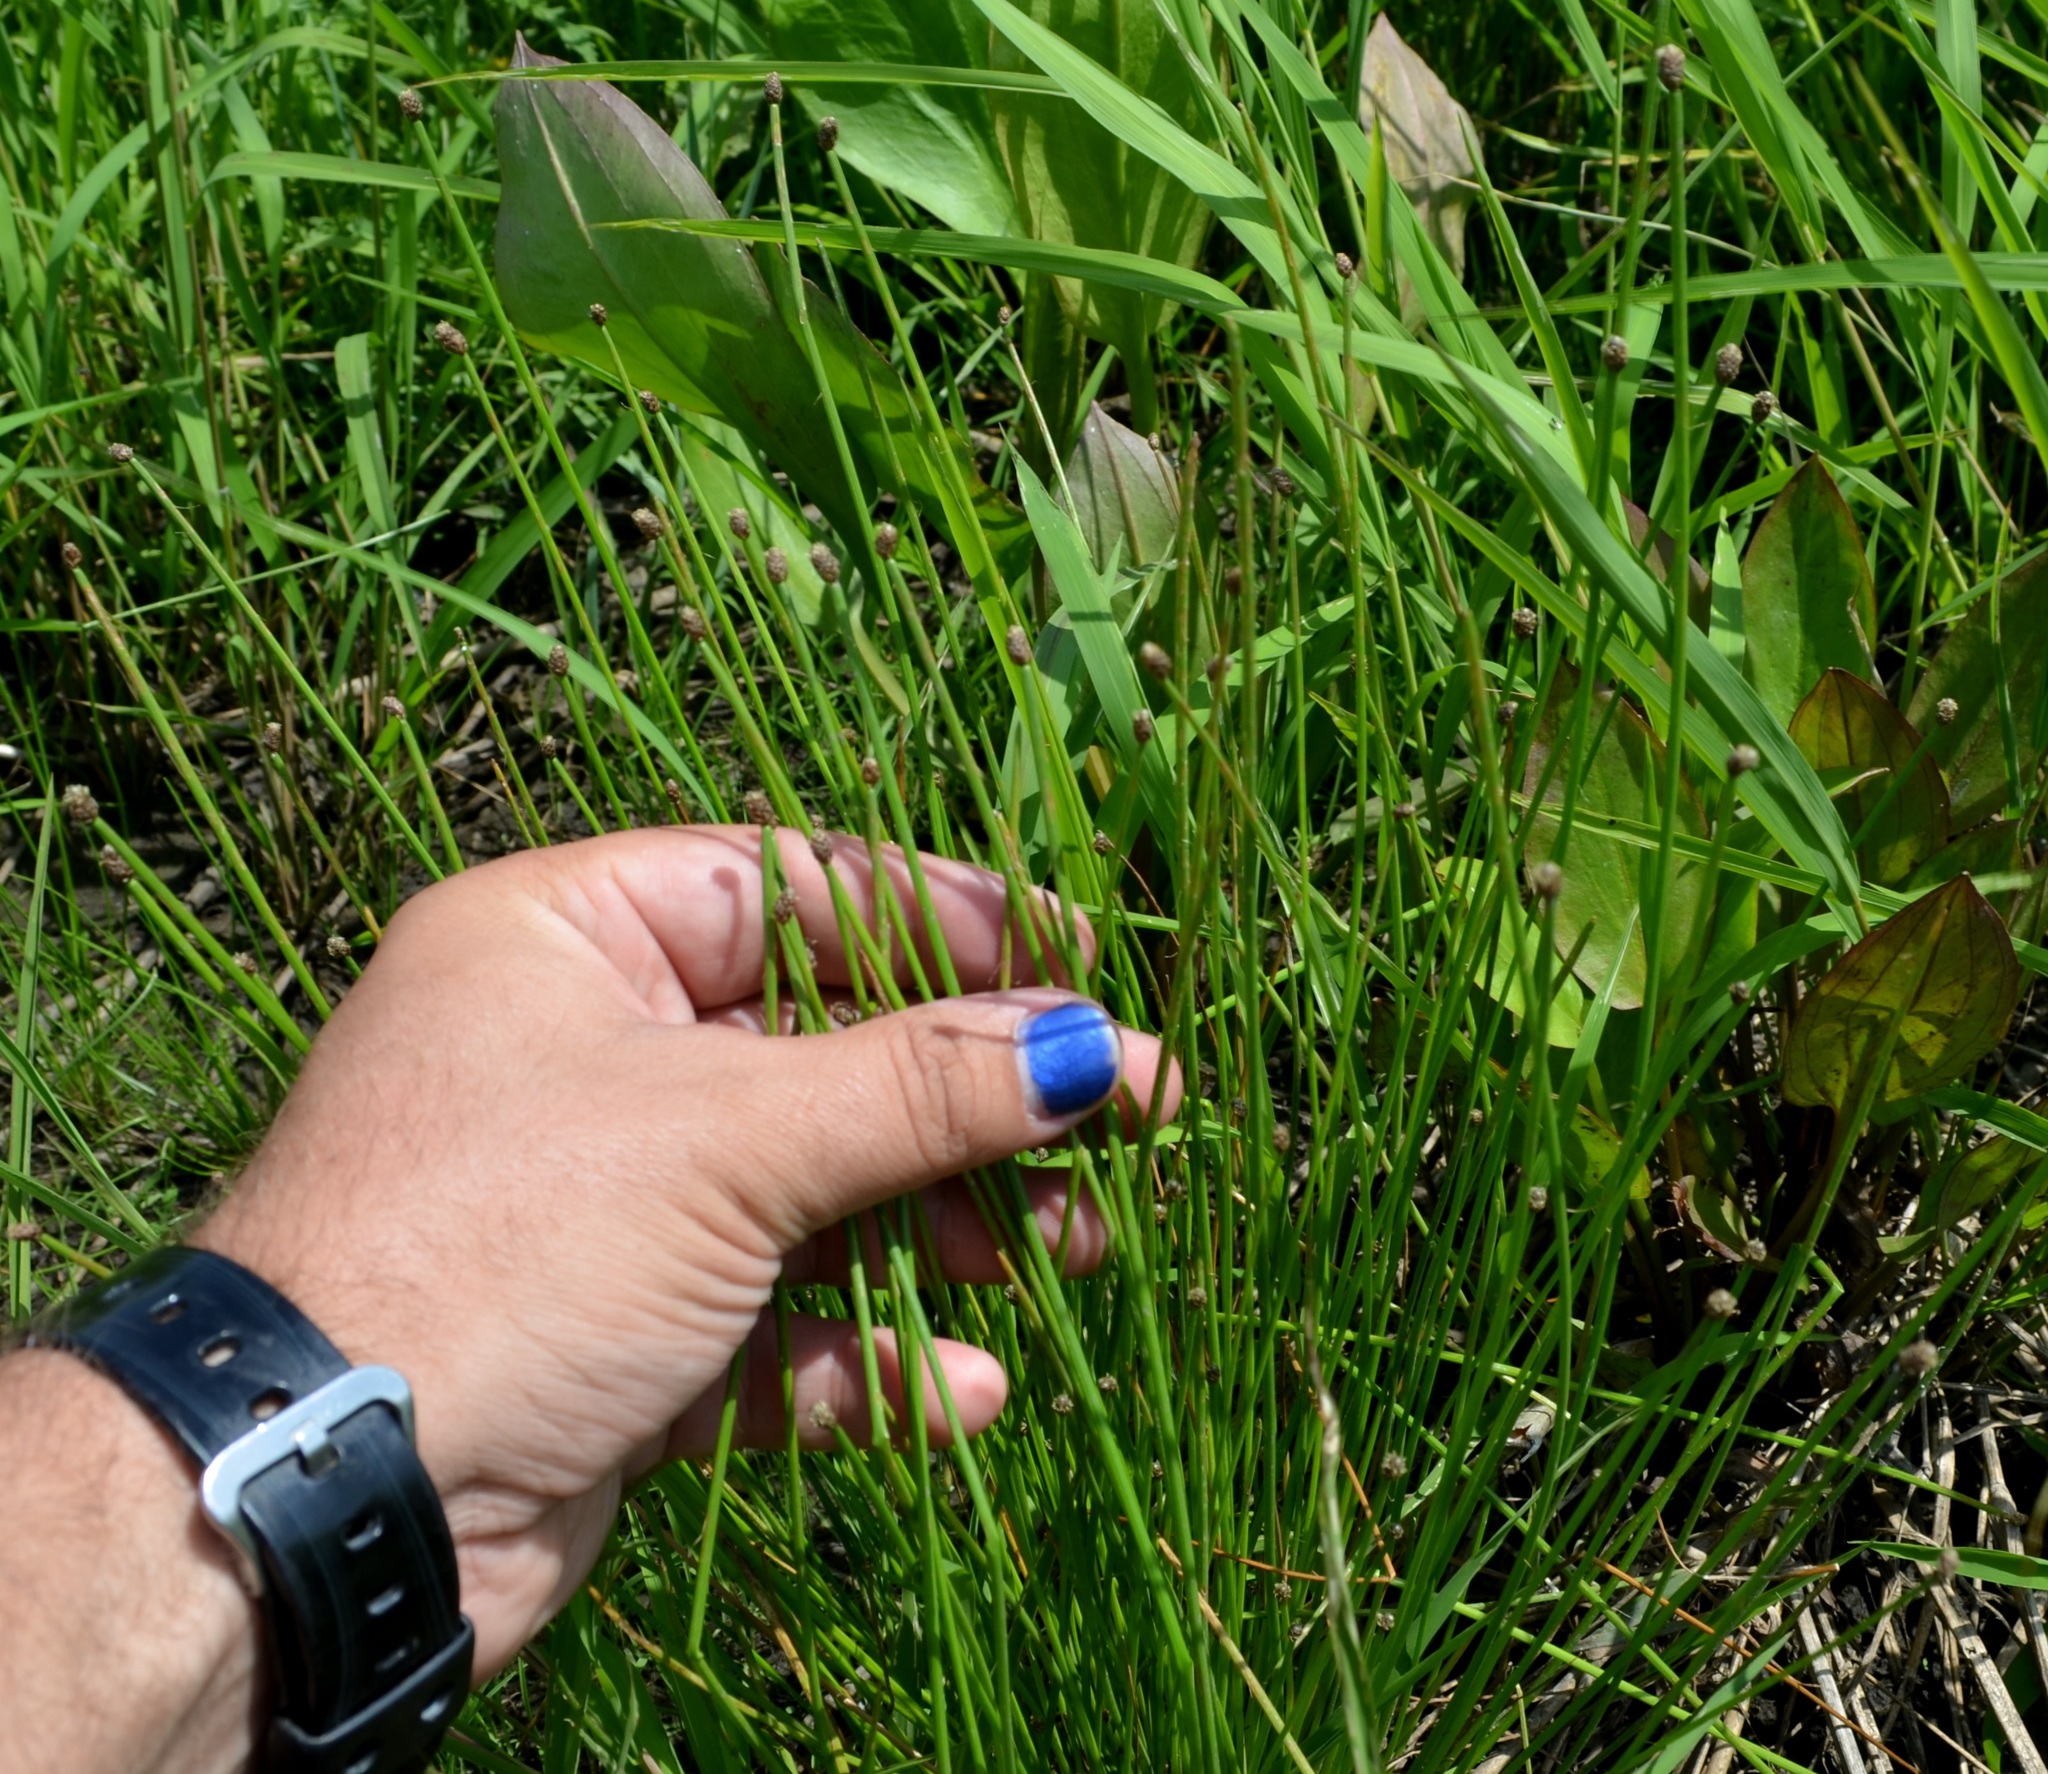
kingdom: Plantae
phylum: Tracheophyta
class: Liliopsida
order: Poales
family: Cyperaceae
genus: Eleocharis
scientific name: Eleocharis obtusa
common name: Blunt spikerush
